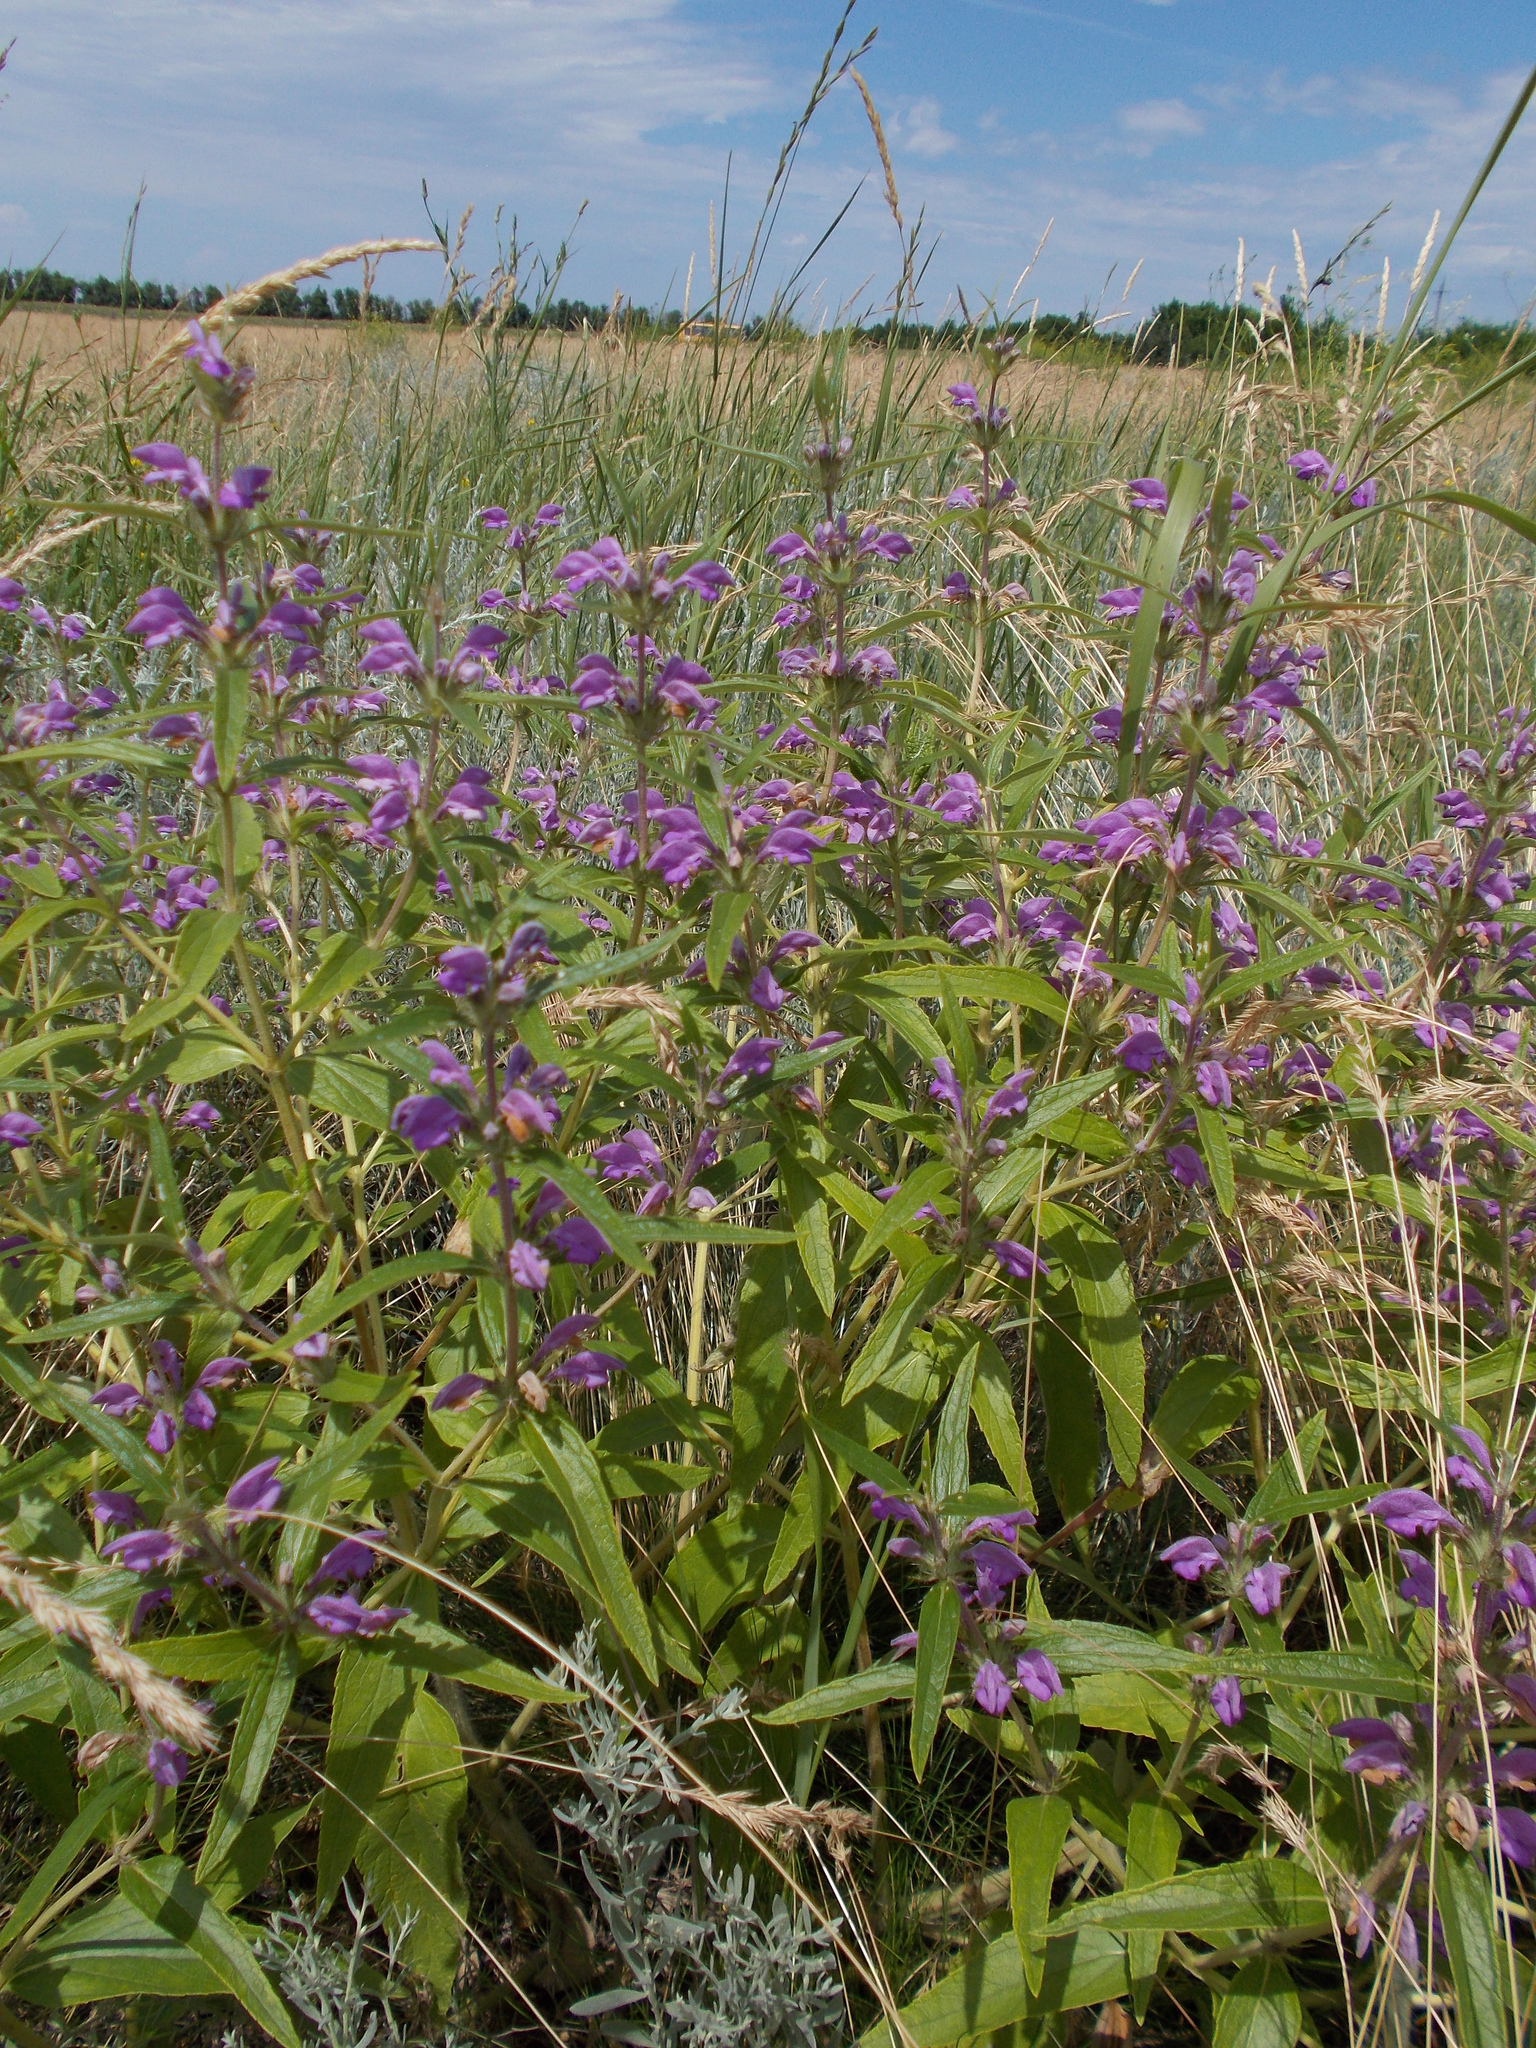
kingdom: Plantae
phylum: Tracheophyta
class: Magnoliopsida
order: Lamiales
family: Lamiaceae
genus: Phlomis
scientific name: Phlomis herba-venti
